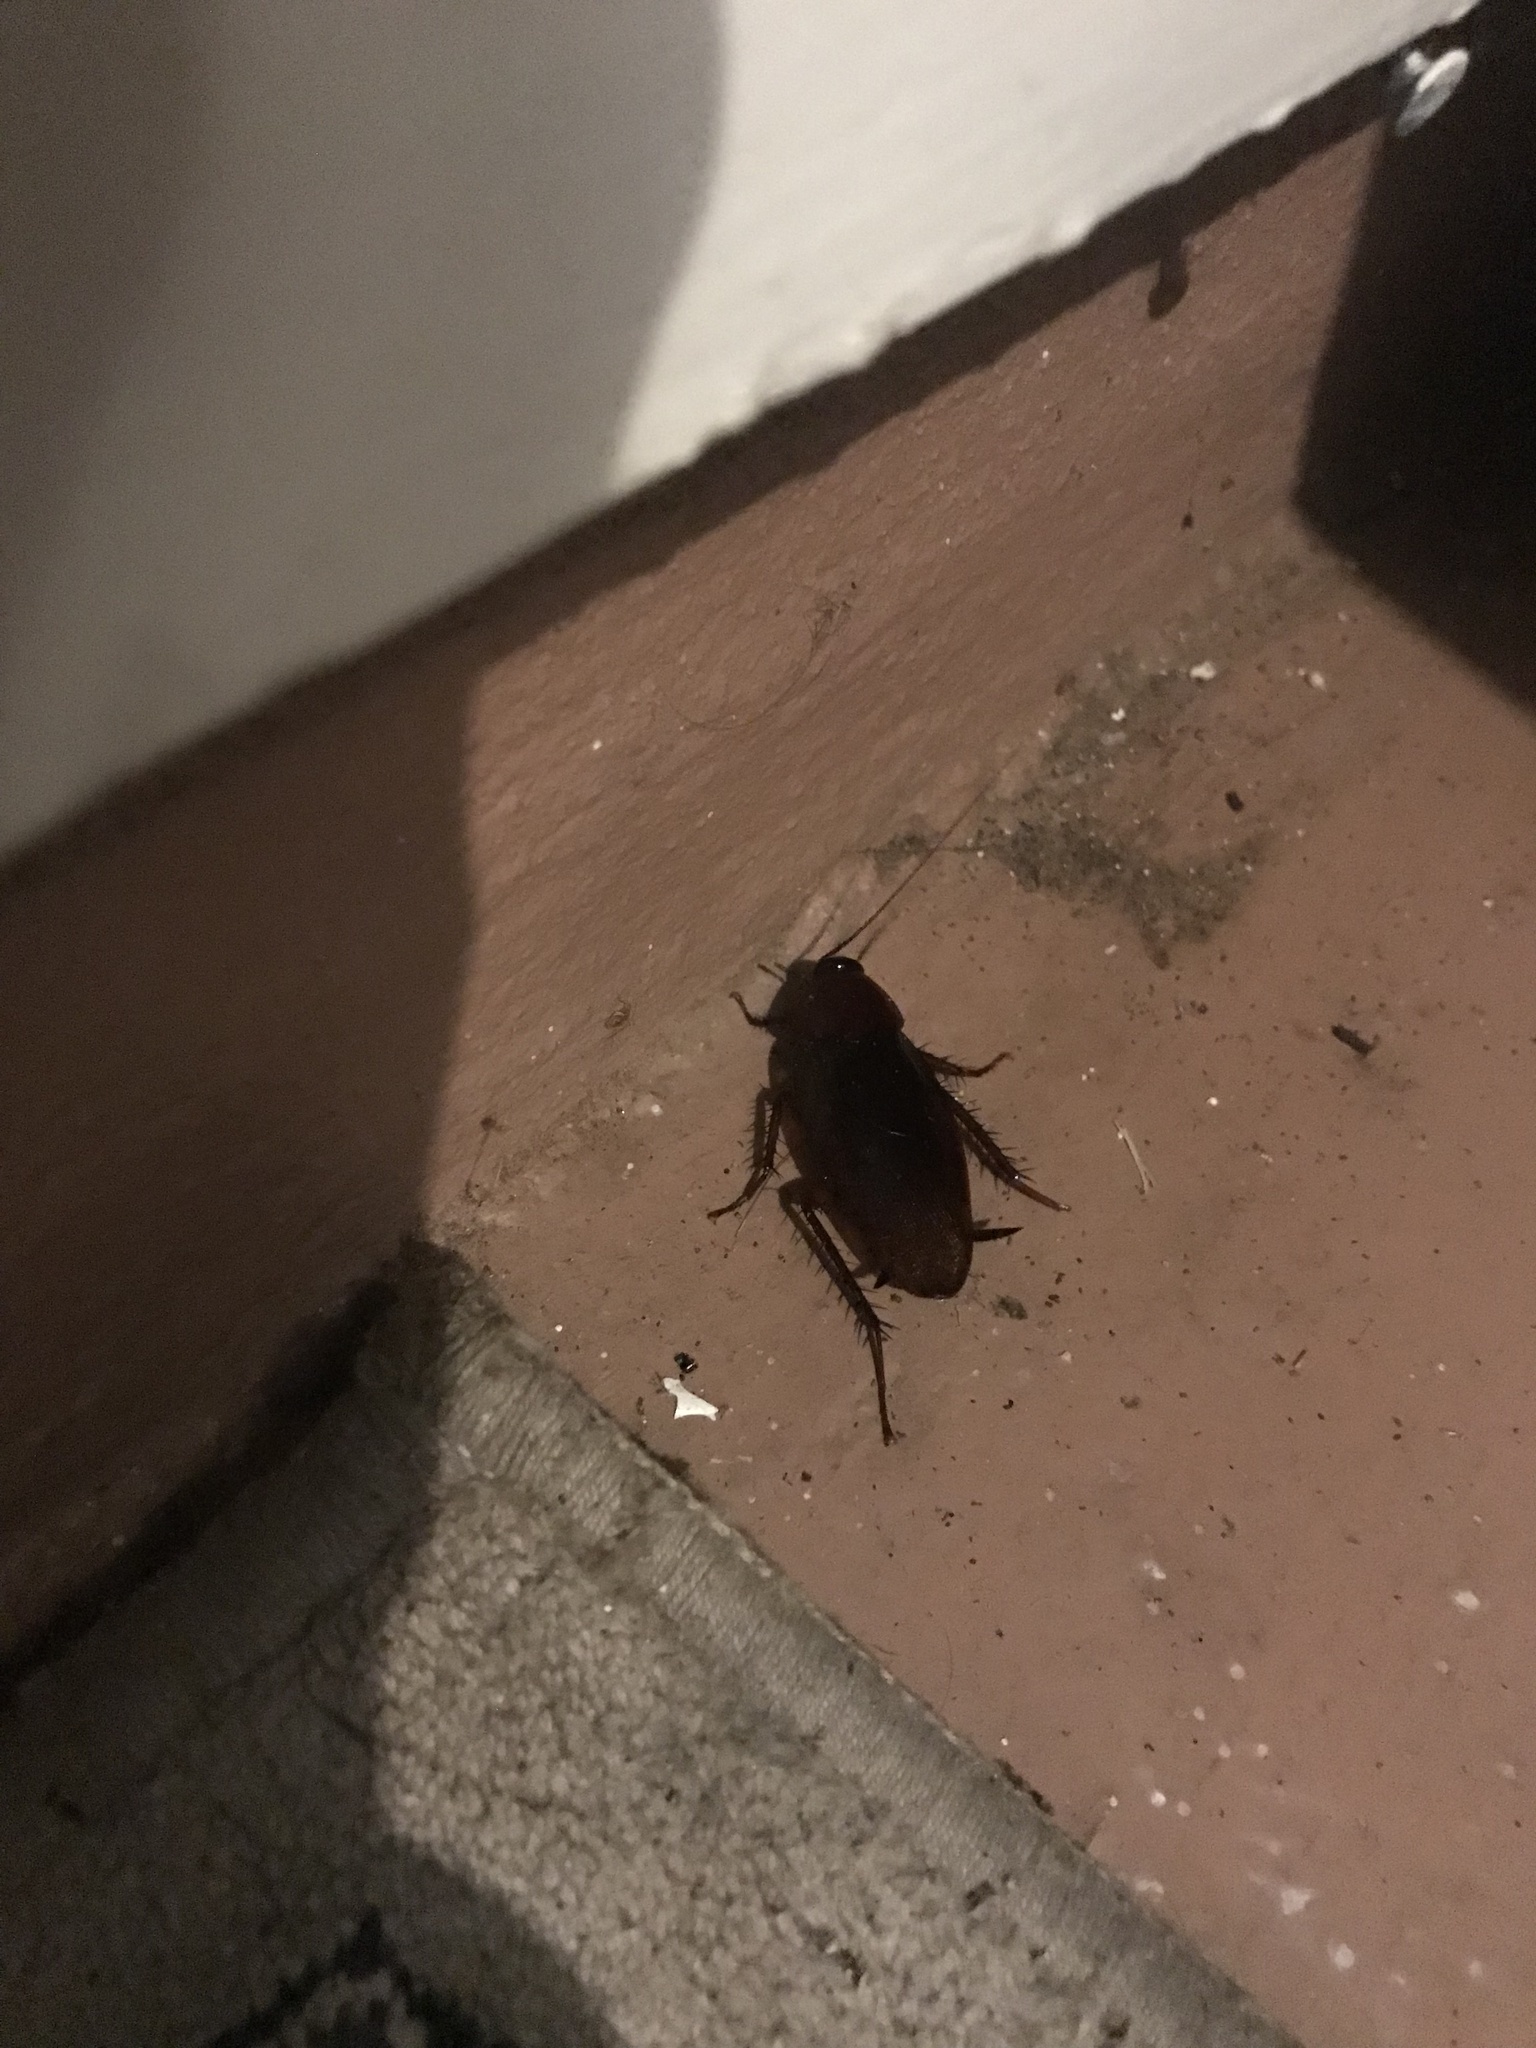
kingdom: Animalia
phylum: Arthropoda
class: Insecta
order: Blattodea
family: Blattidae
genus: Periplaneta
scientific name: Periplaneta fuliginosa
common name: Smokeybrown cockroad
